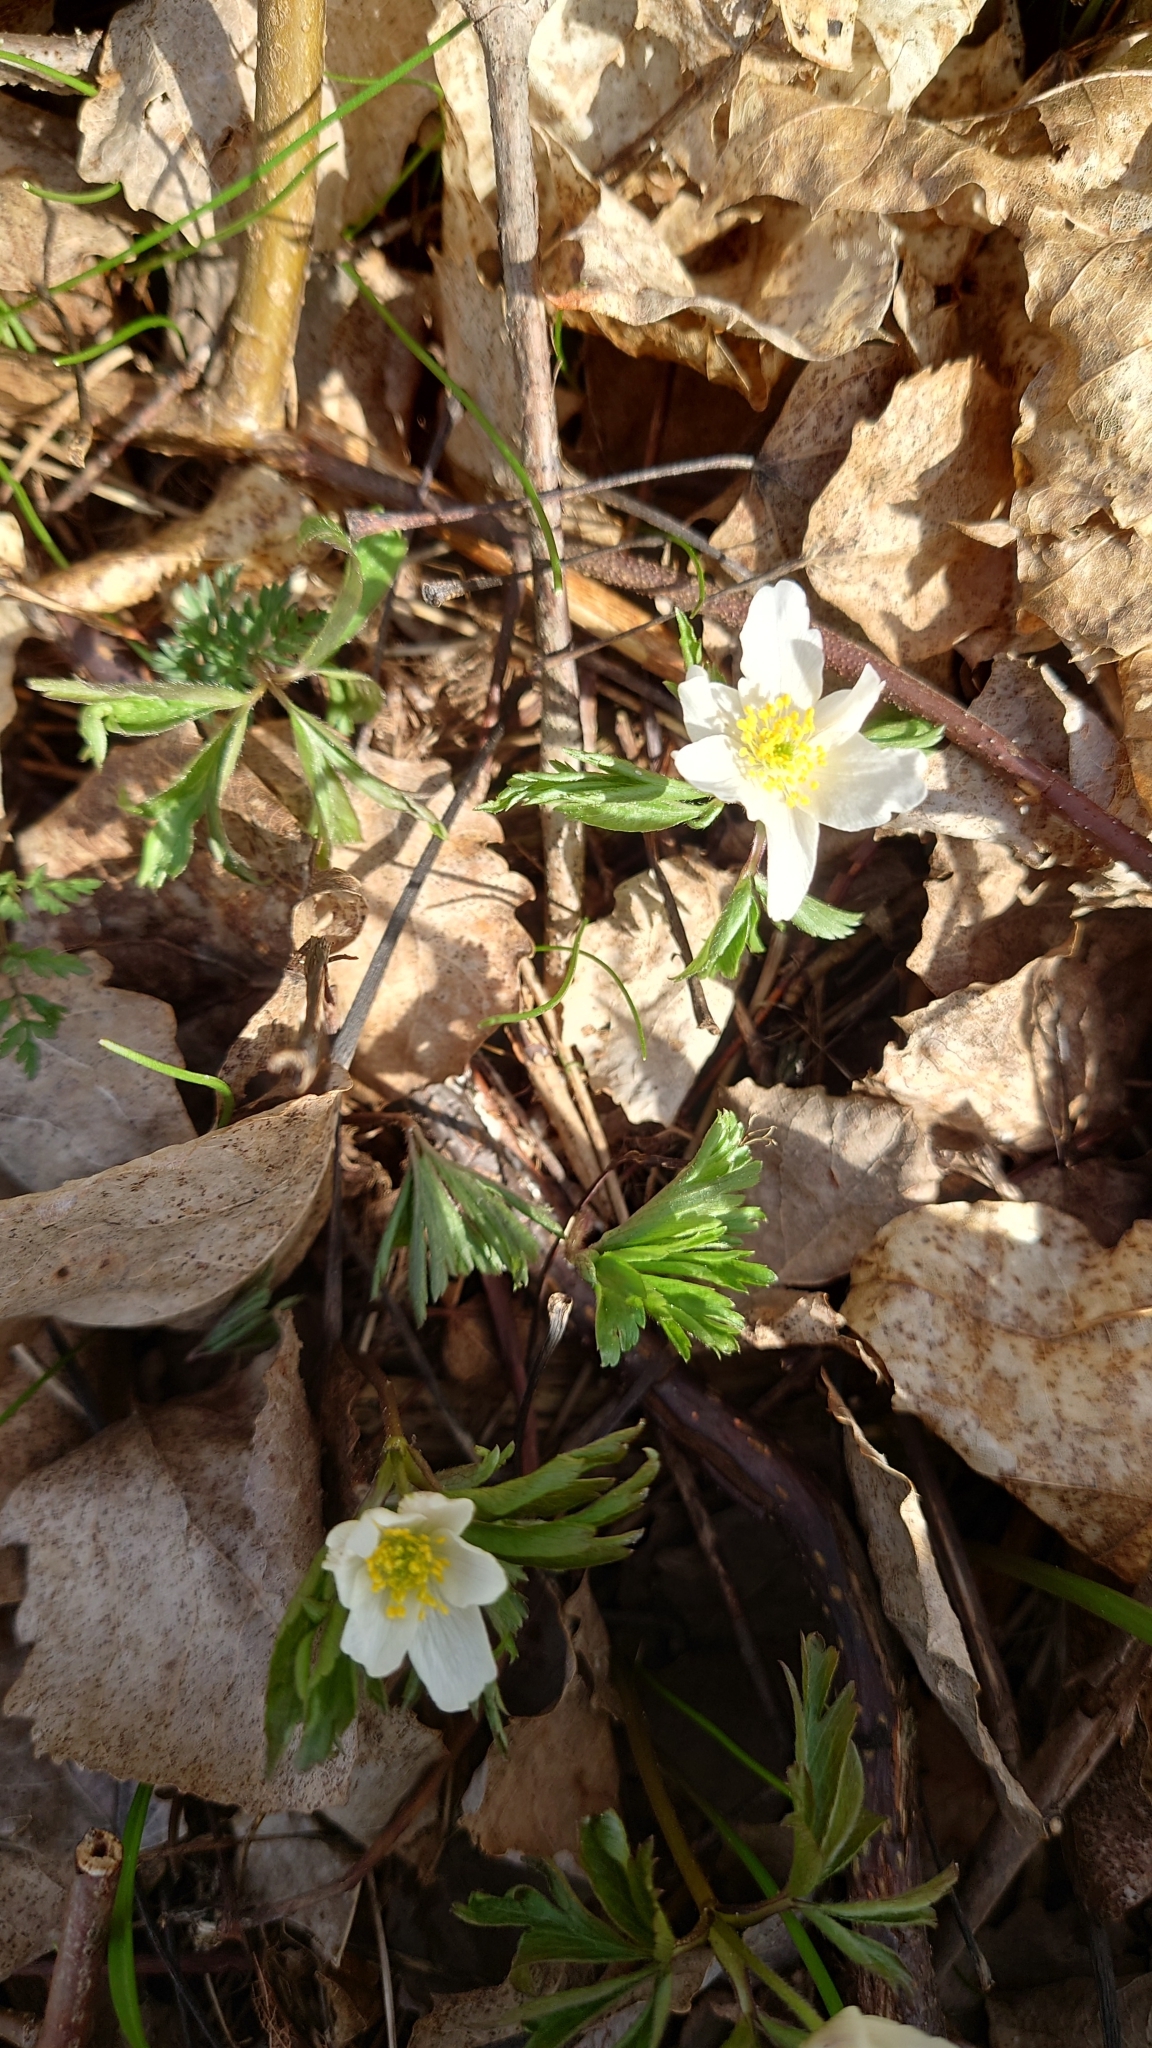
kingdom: Plantae
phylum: Tracheophyta
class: Magnoliopsida
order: Ranunculales
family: Ranunculaceae
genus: Anemone
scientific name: Anemone nemorosa
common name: Wood anemone
